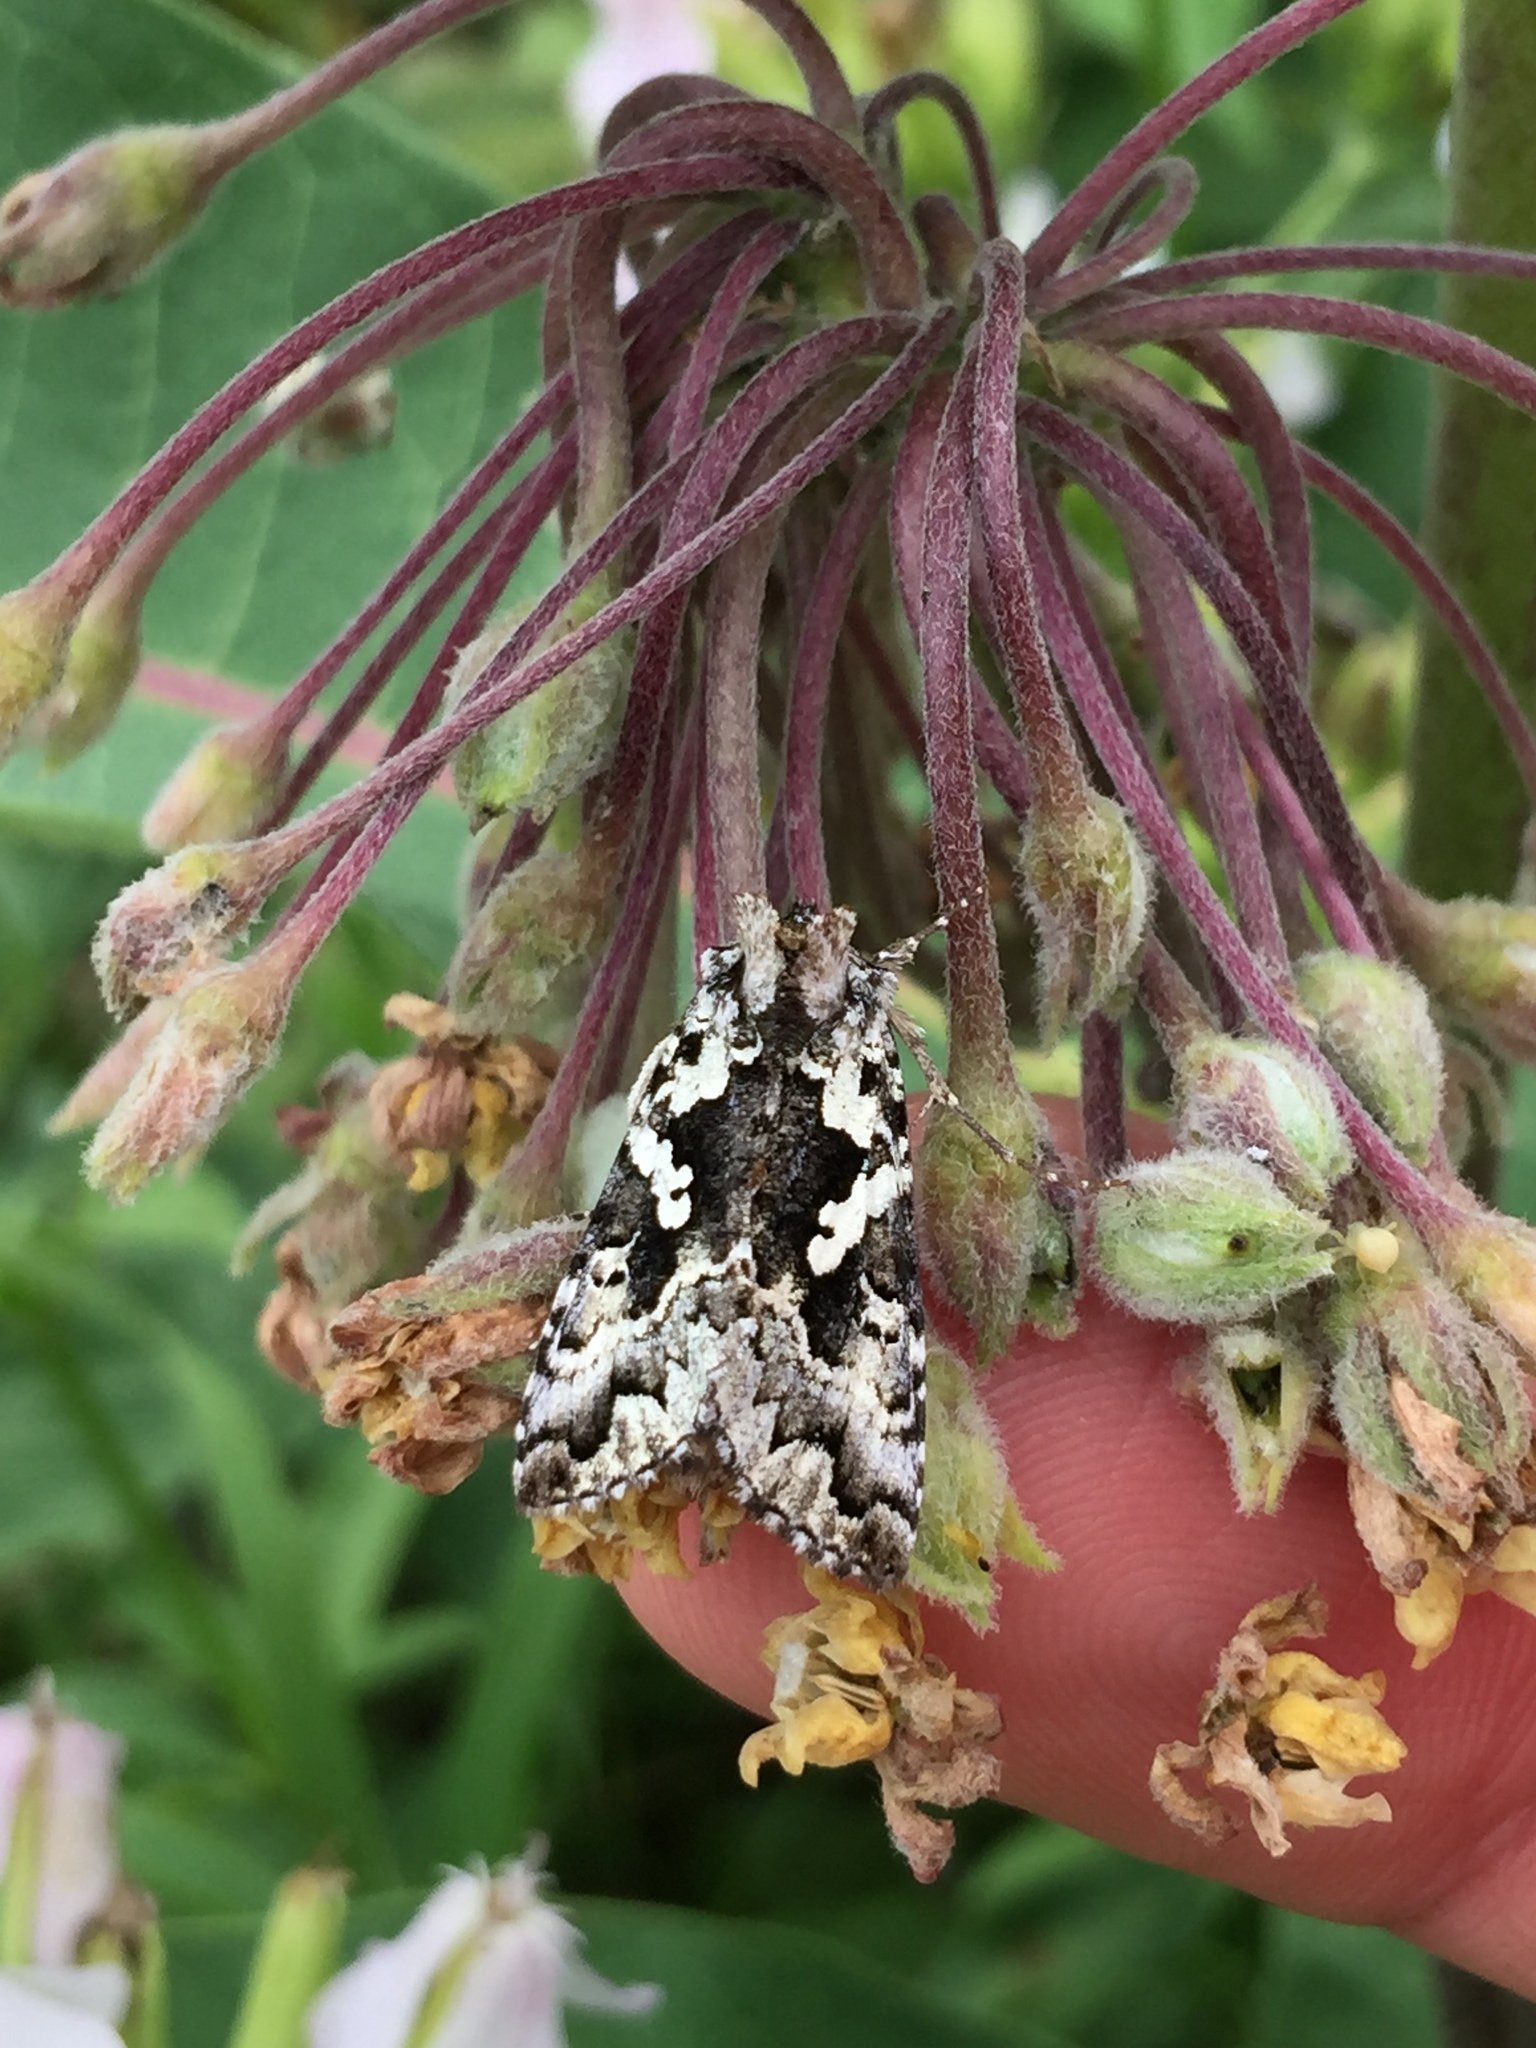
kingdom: Animalia
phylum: Arthropoda
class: Insecta
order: Lepidoptera
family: Noctuidae
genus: Syngrapha
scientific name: Syngrapha rectangula
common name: Angulated cutworm
